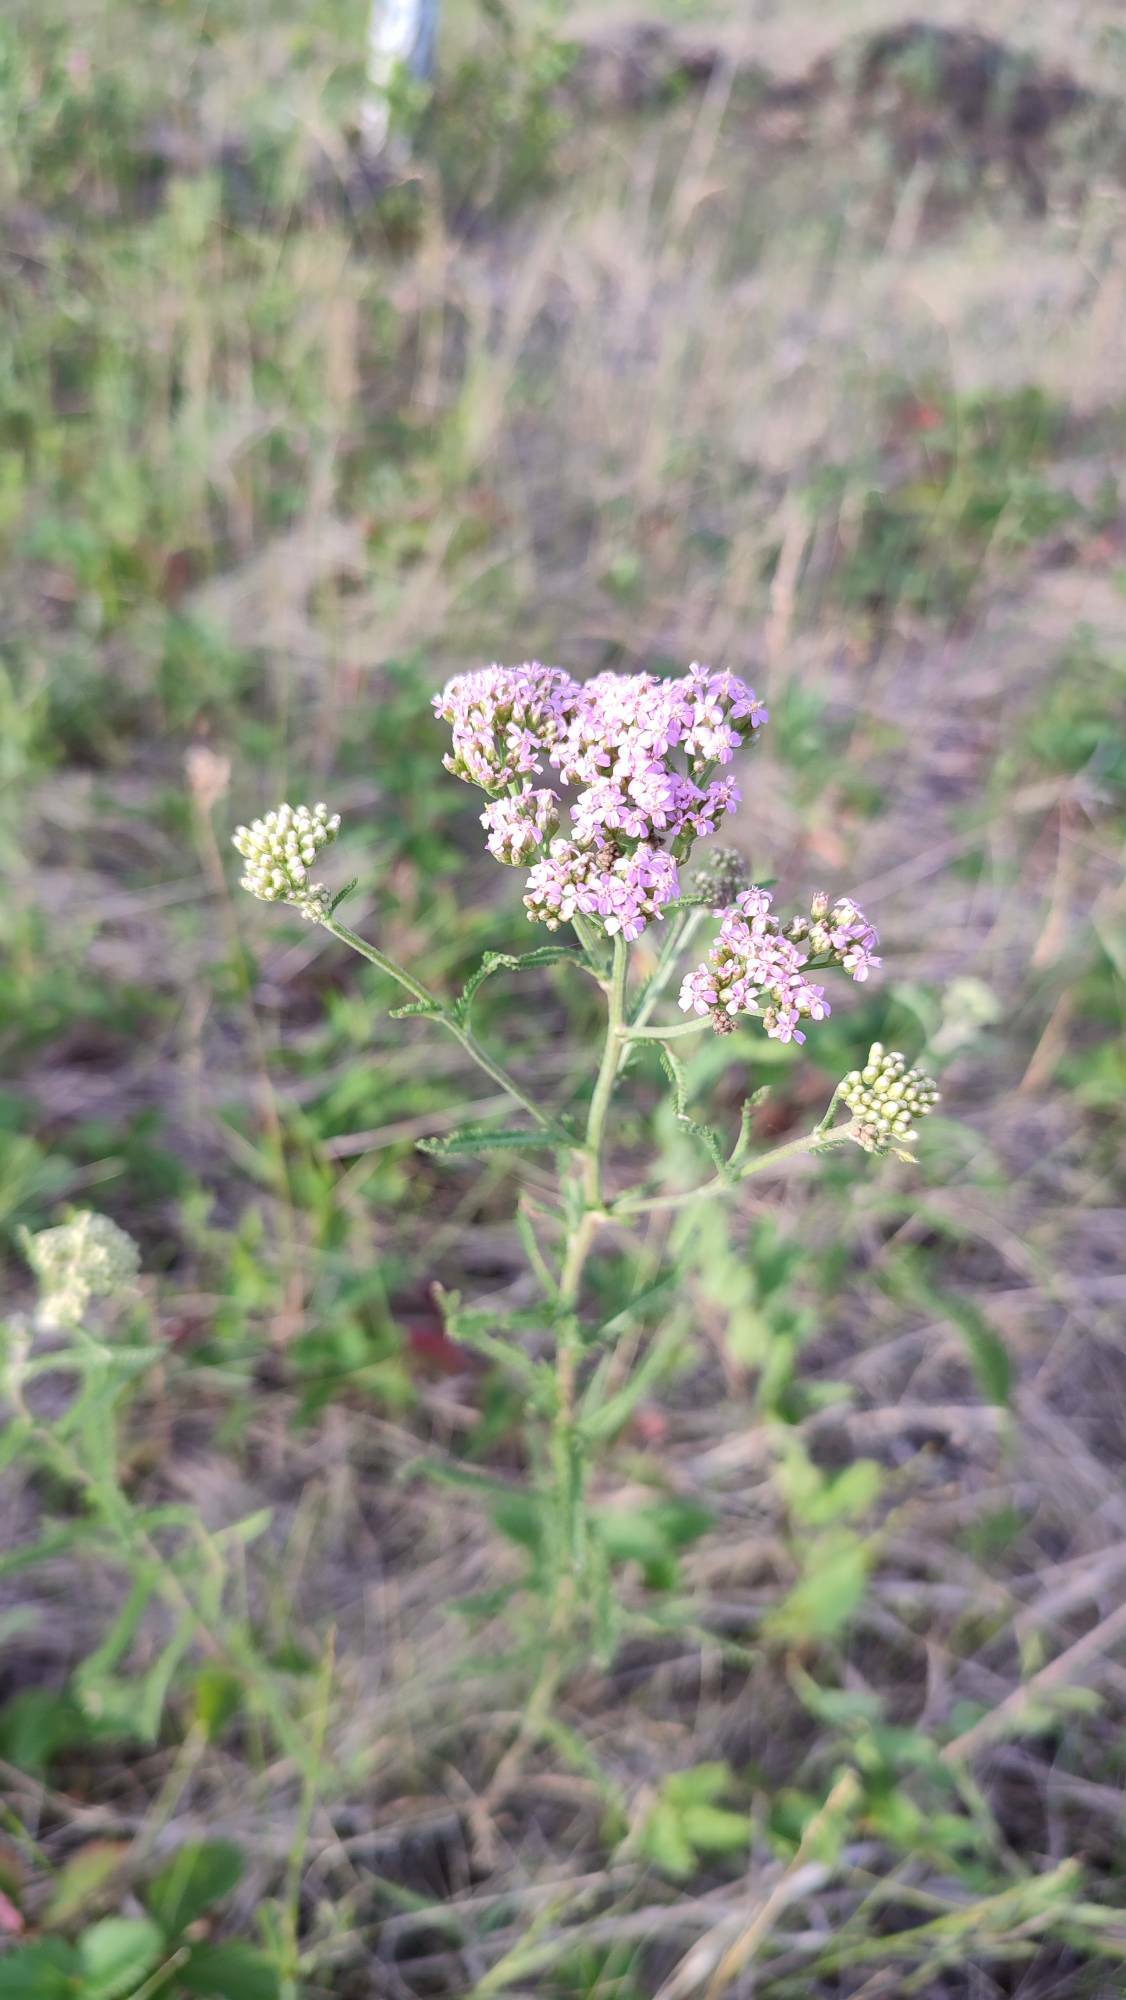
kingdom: Plantae
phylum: Tracheophyta
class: Magnoliopsida
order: Asterales
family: Asteraceae
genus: Achillea
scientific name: Achillea asiatica
